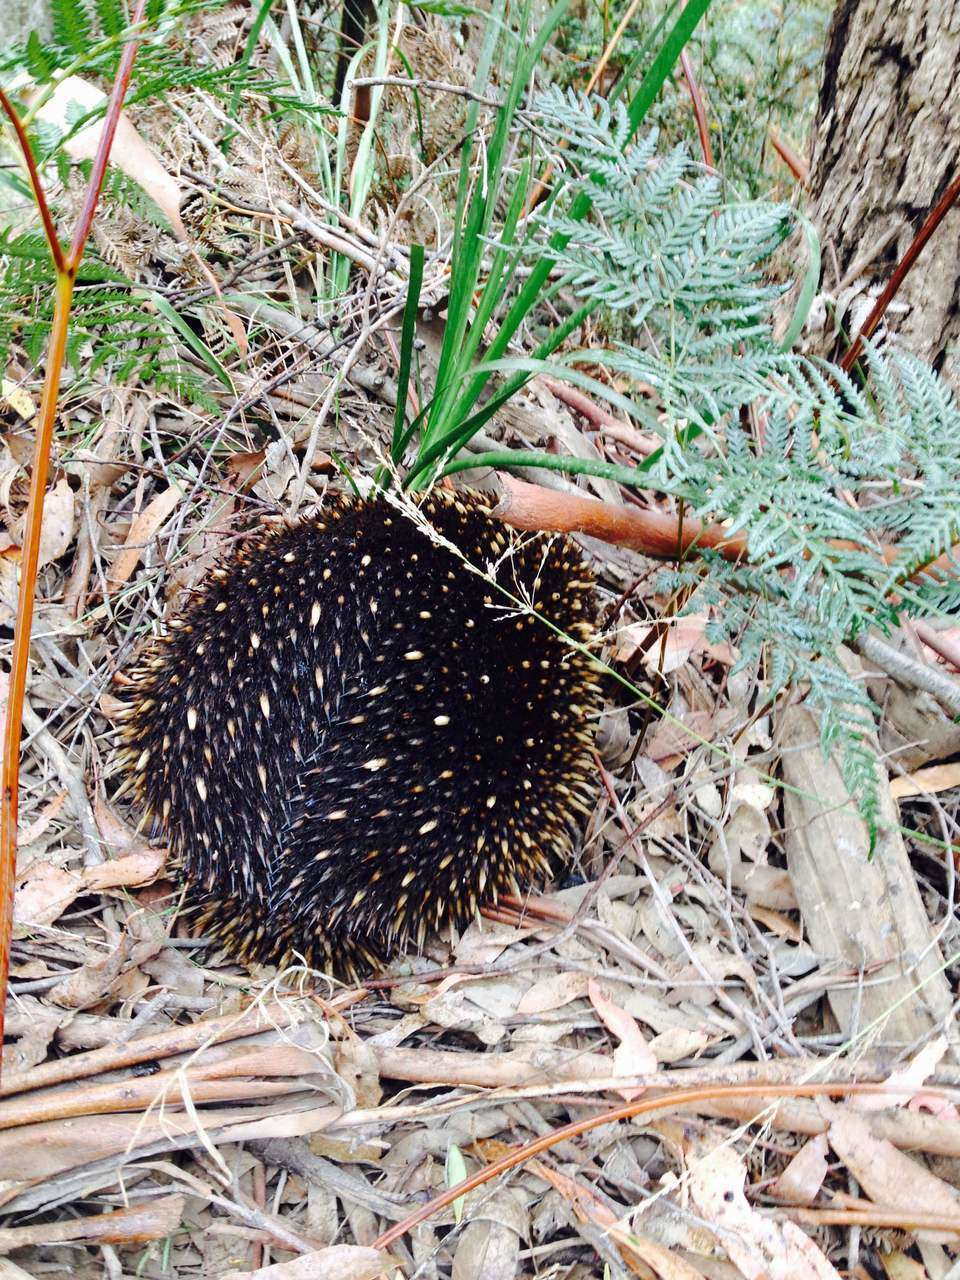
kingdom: Animalia
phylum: Chordata
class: Mammalia
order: Monotremata
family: Tachyglossidae
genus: Tachyglossus
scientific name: Tachyglossus aculeatus
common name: Short-beaked echidna
